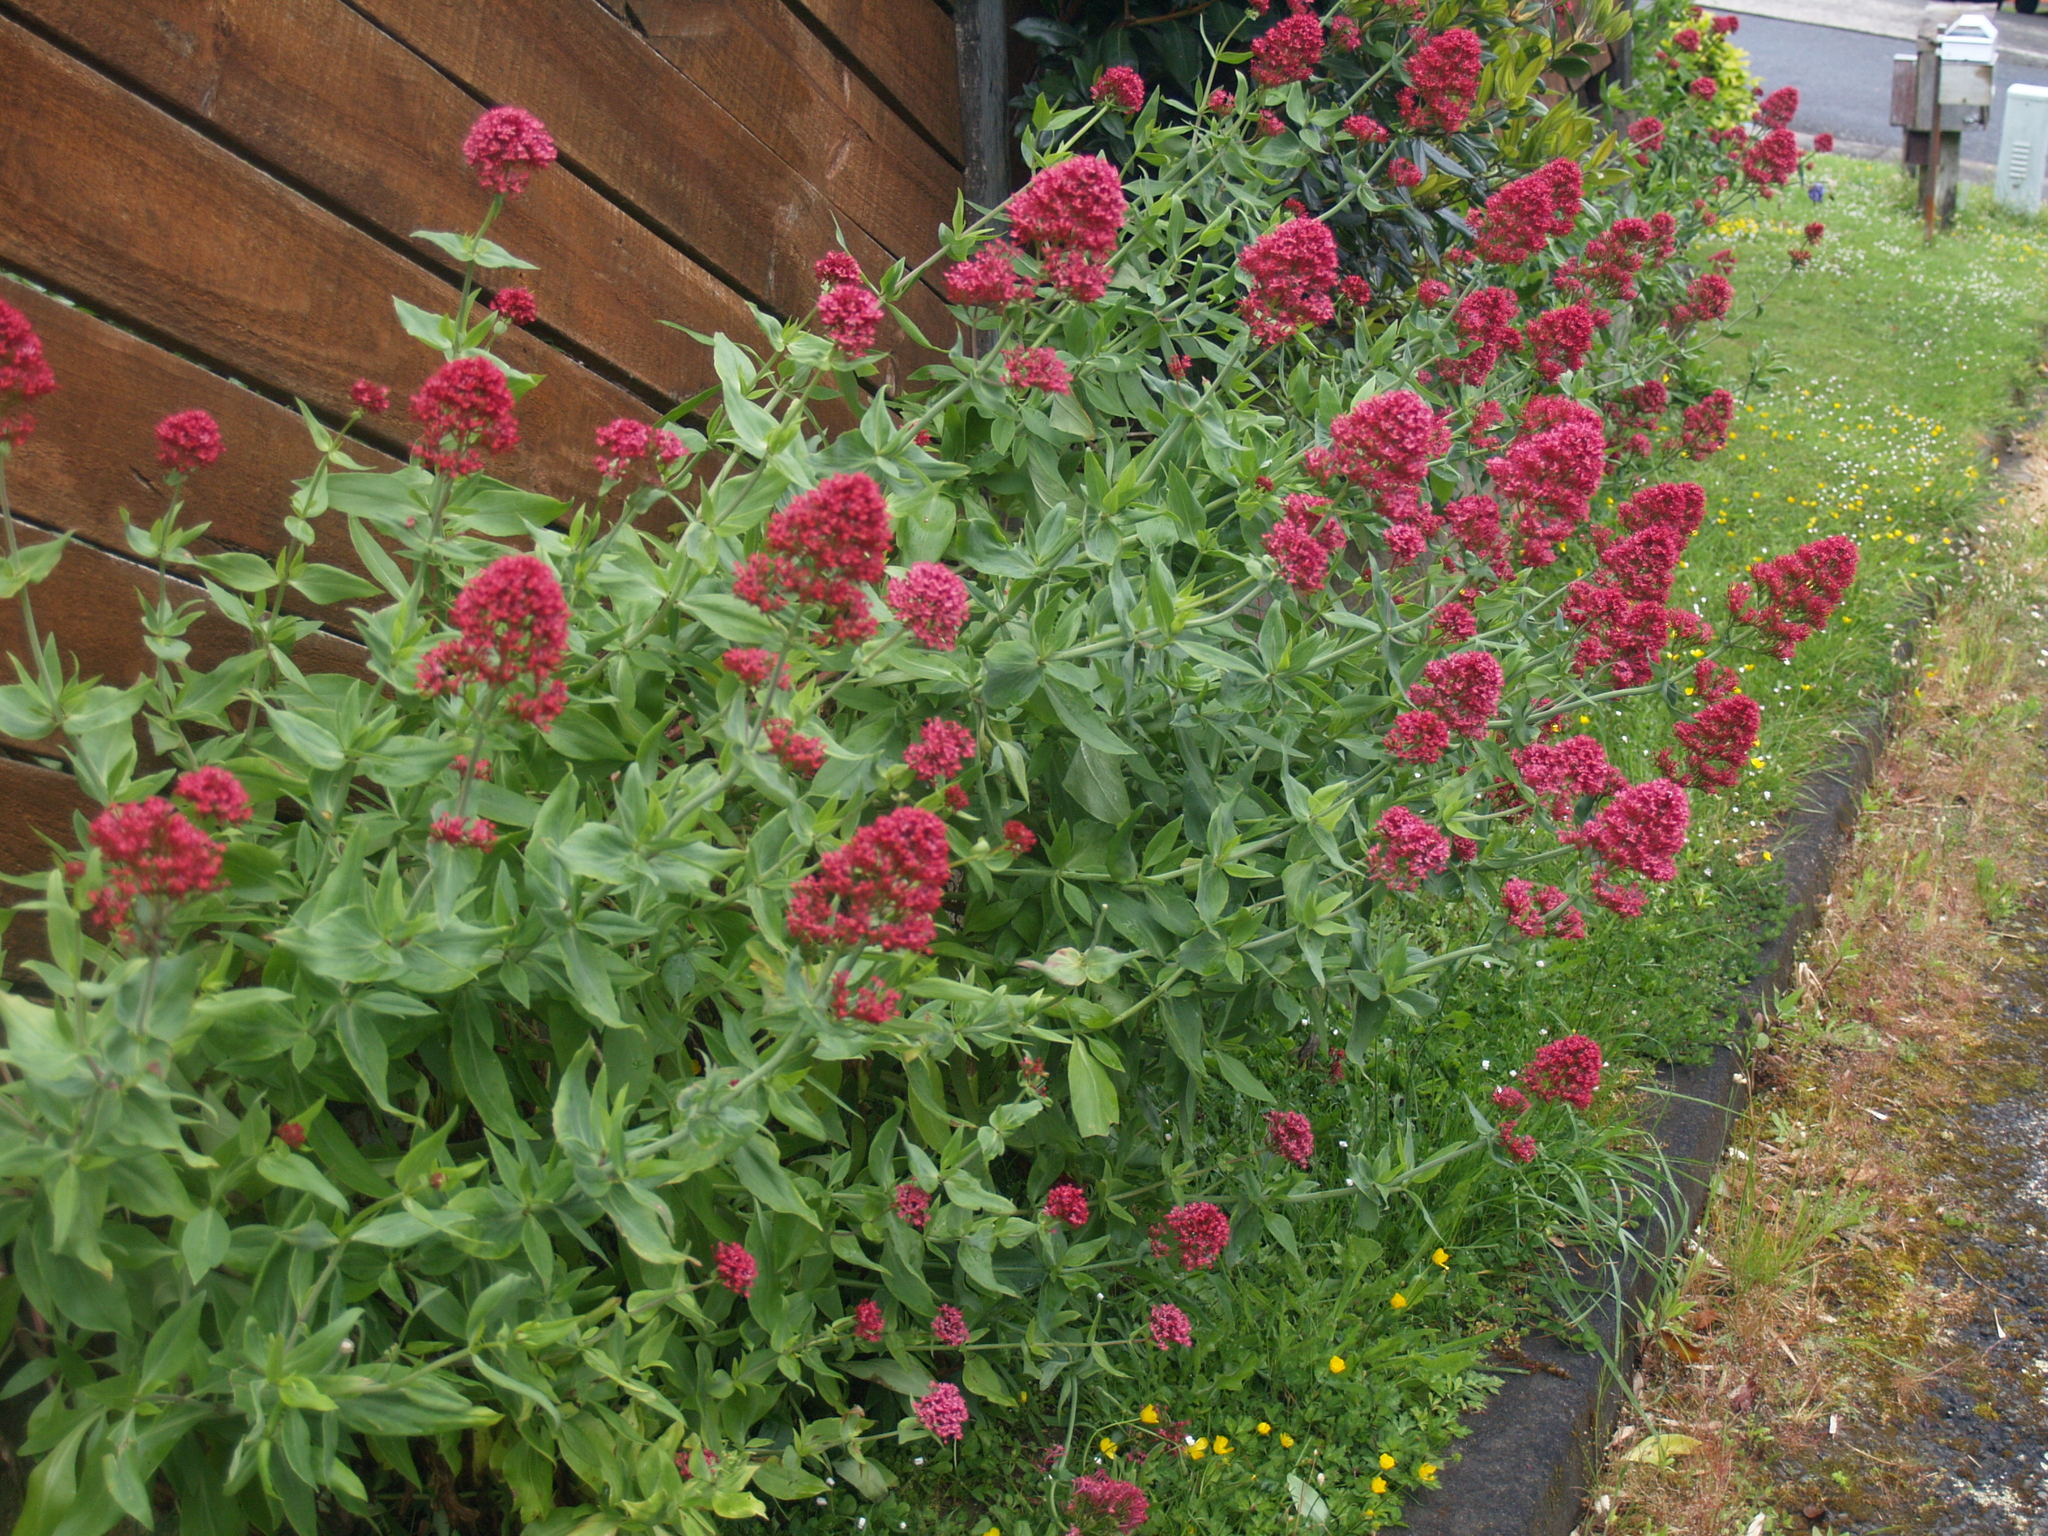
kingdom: Plantae
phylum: Tracheophyta
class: Magnoliopsida
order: Dipsacales
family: Caprifoliaceae
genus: Centranthus
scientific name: Centranthus ruber
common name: Red valerian
